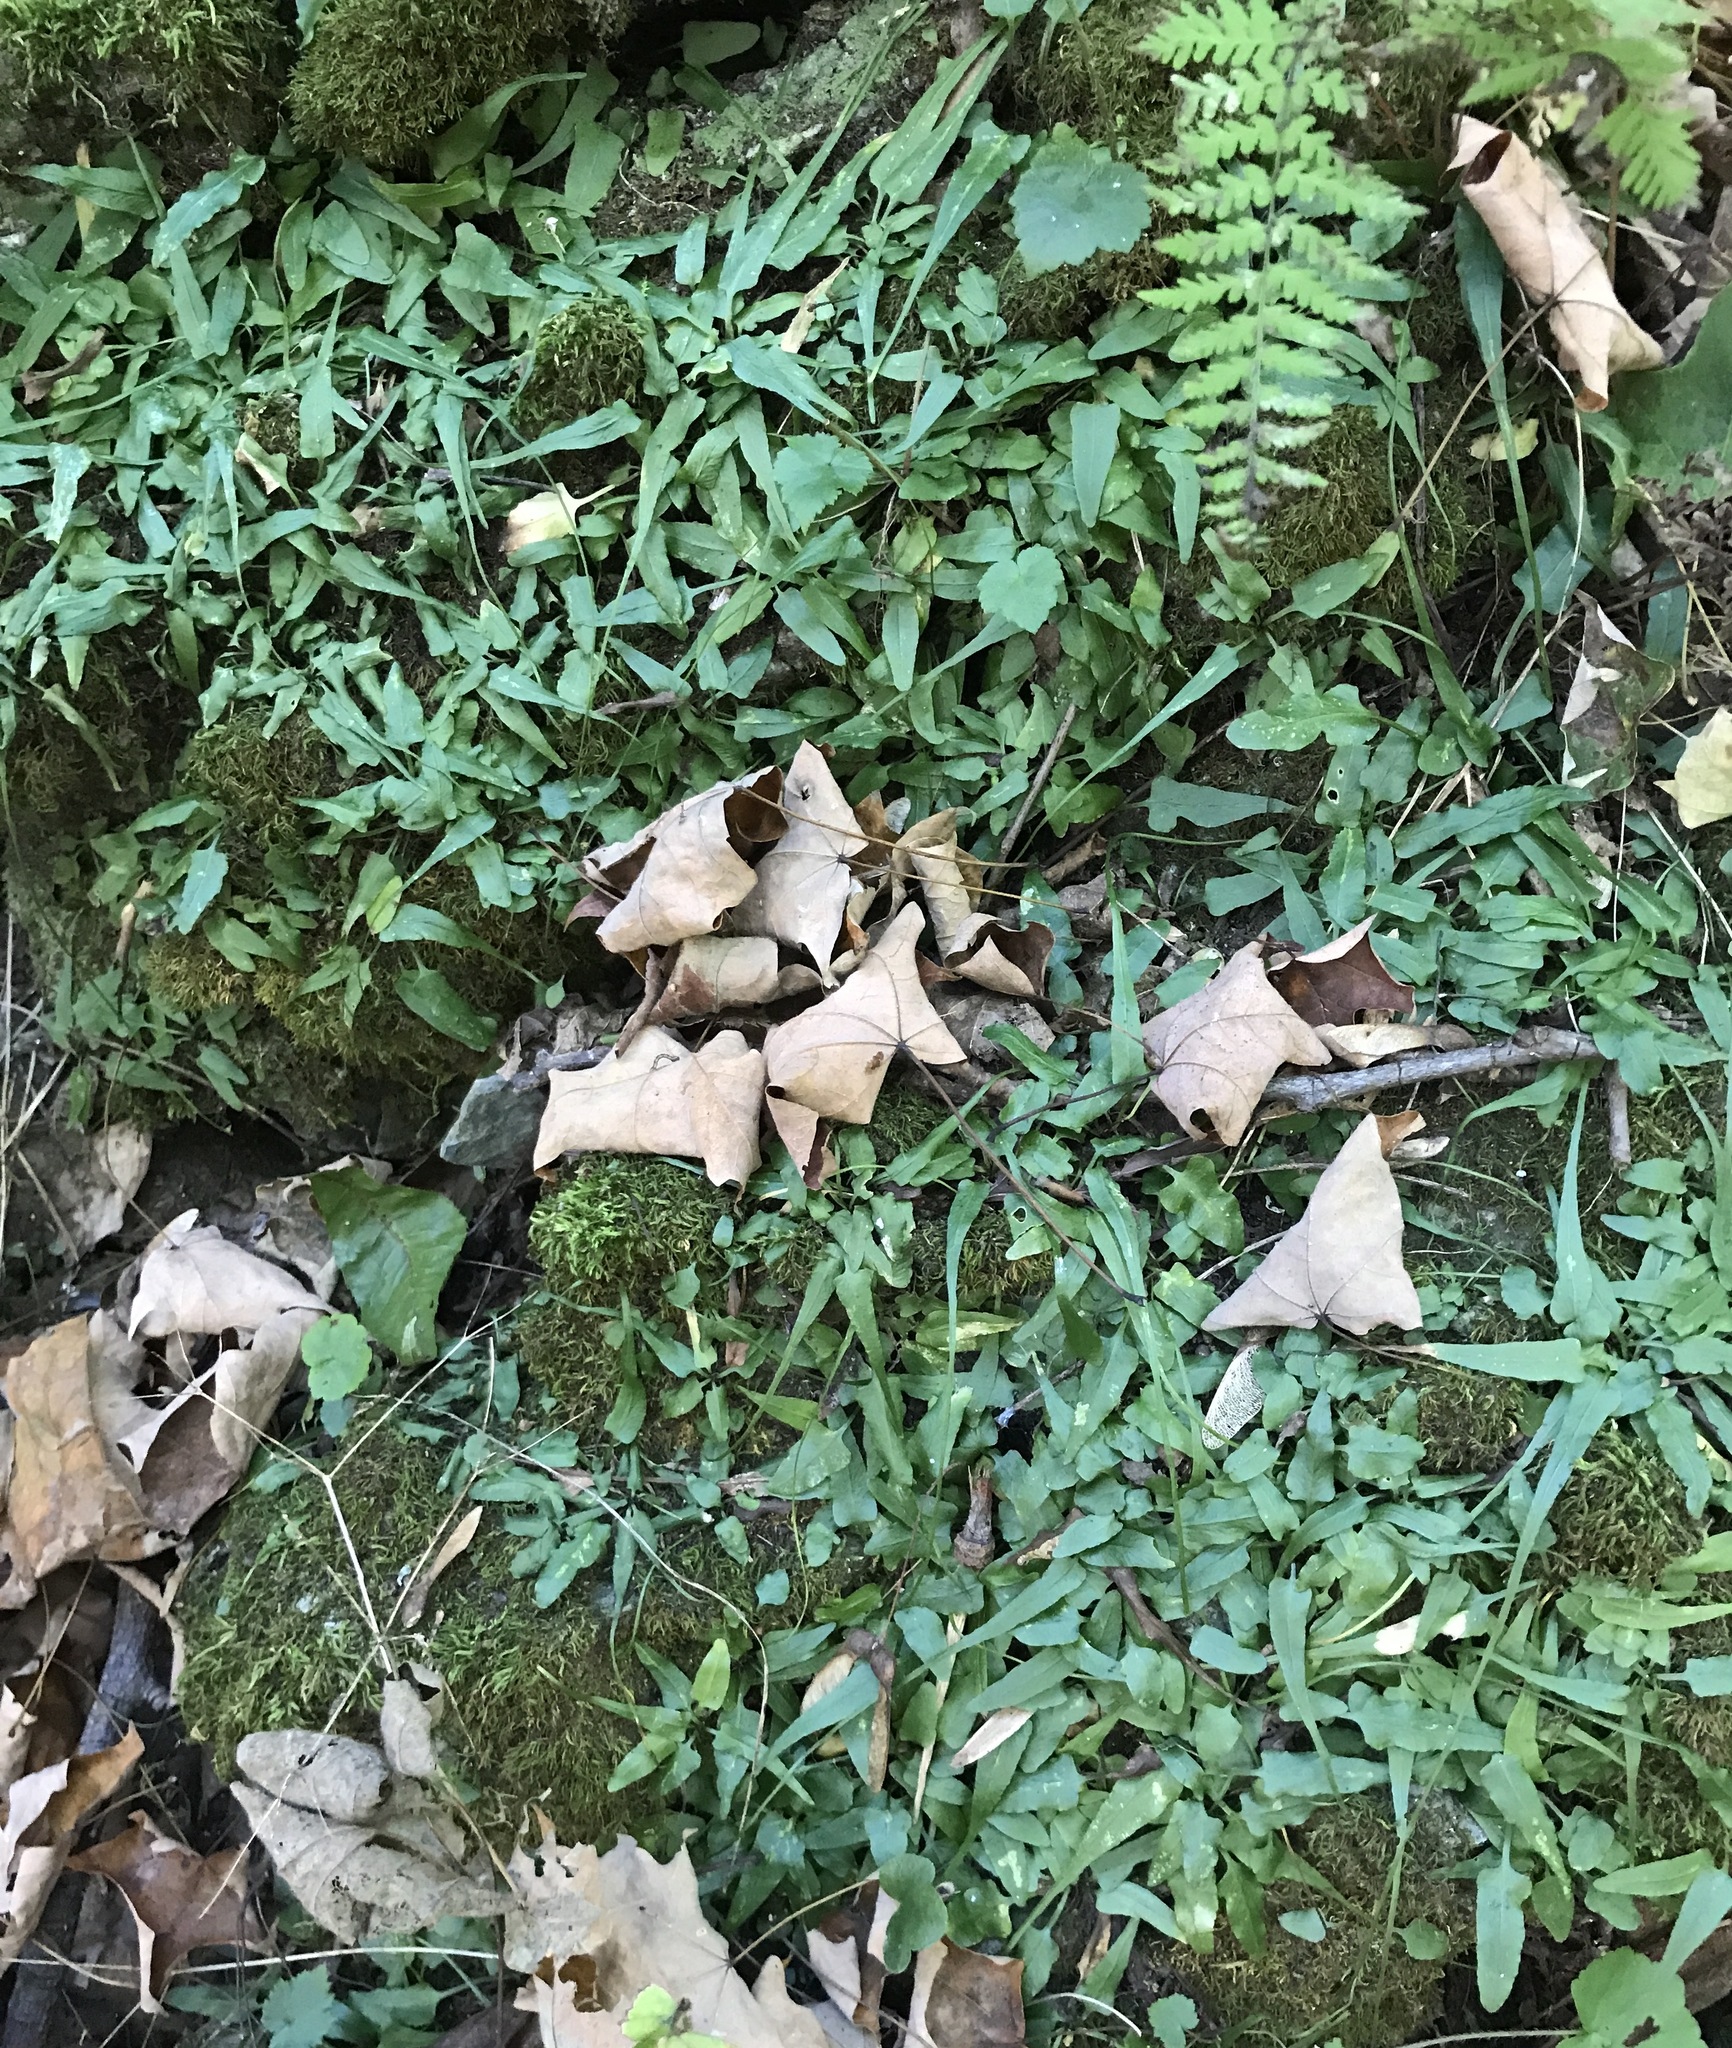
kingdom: Plantae
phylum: Tracheophyta
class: Polypodiopsida
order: Polypodiales
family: Aspleniaceae
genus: Asplenium
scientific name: Asplenium rhizophyllum
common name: Walking fern
